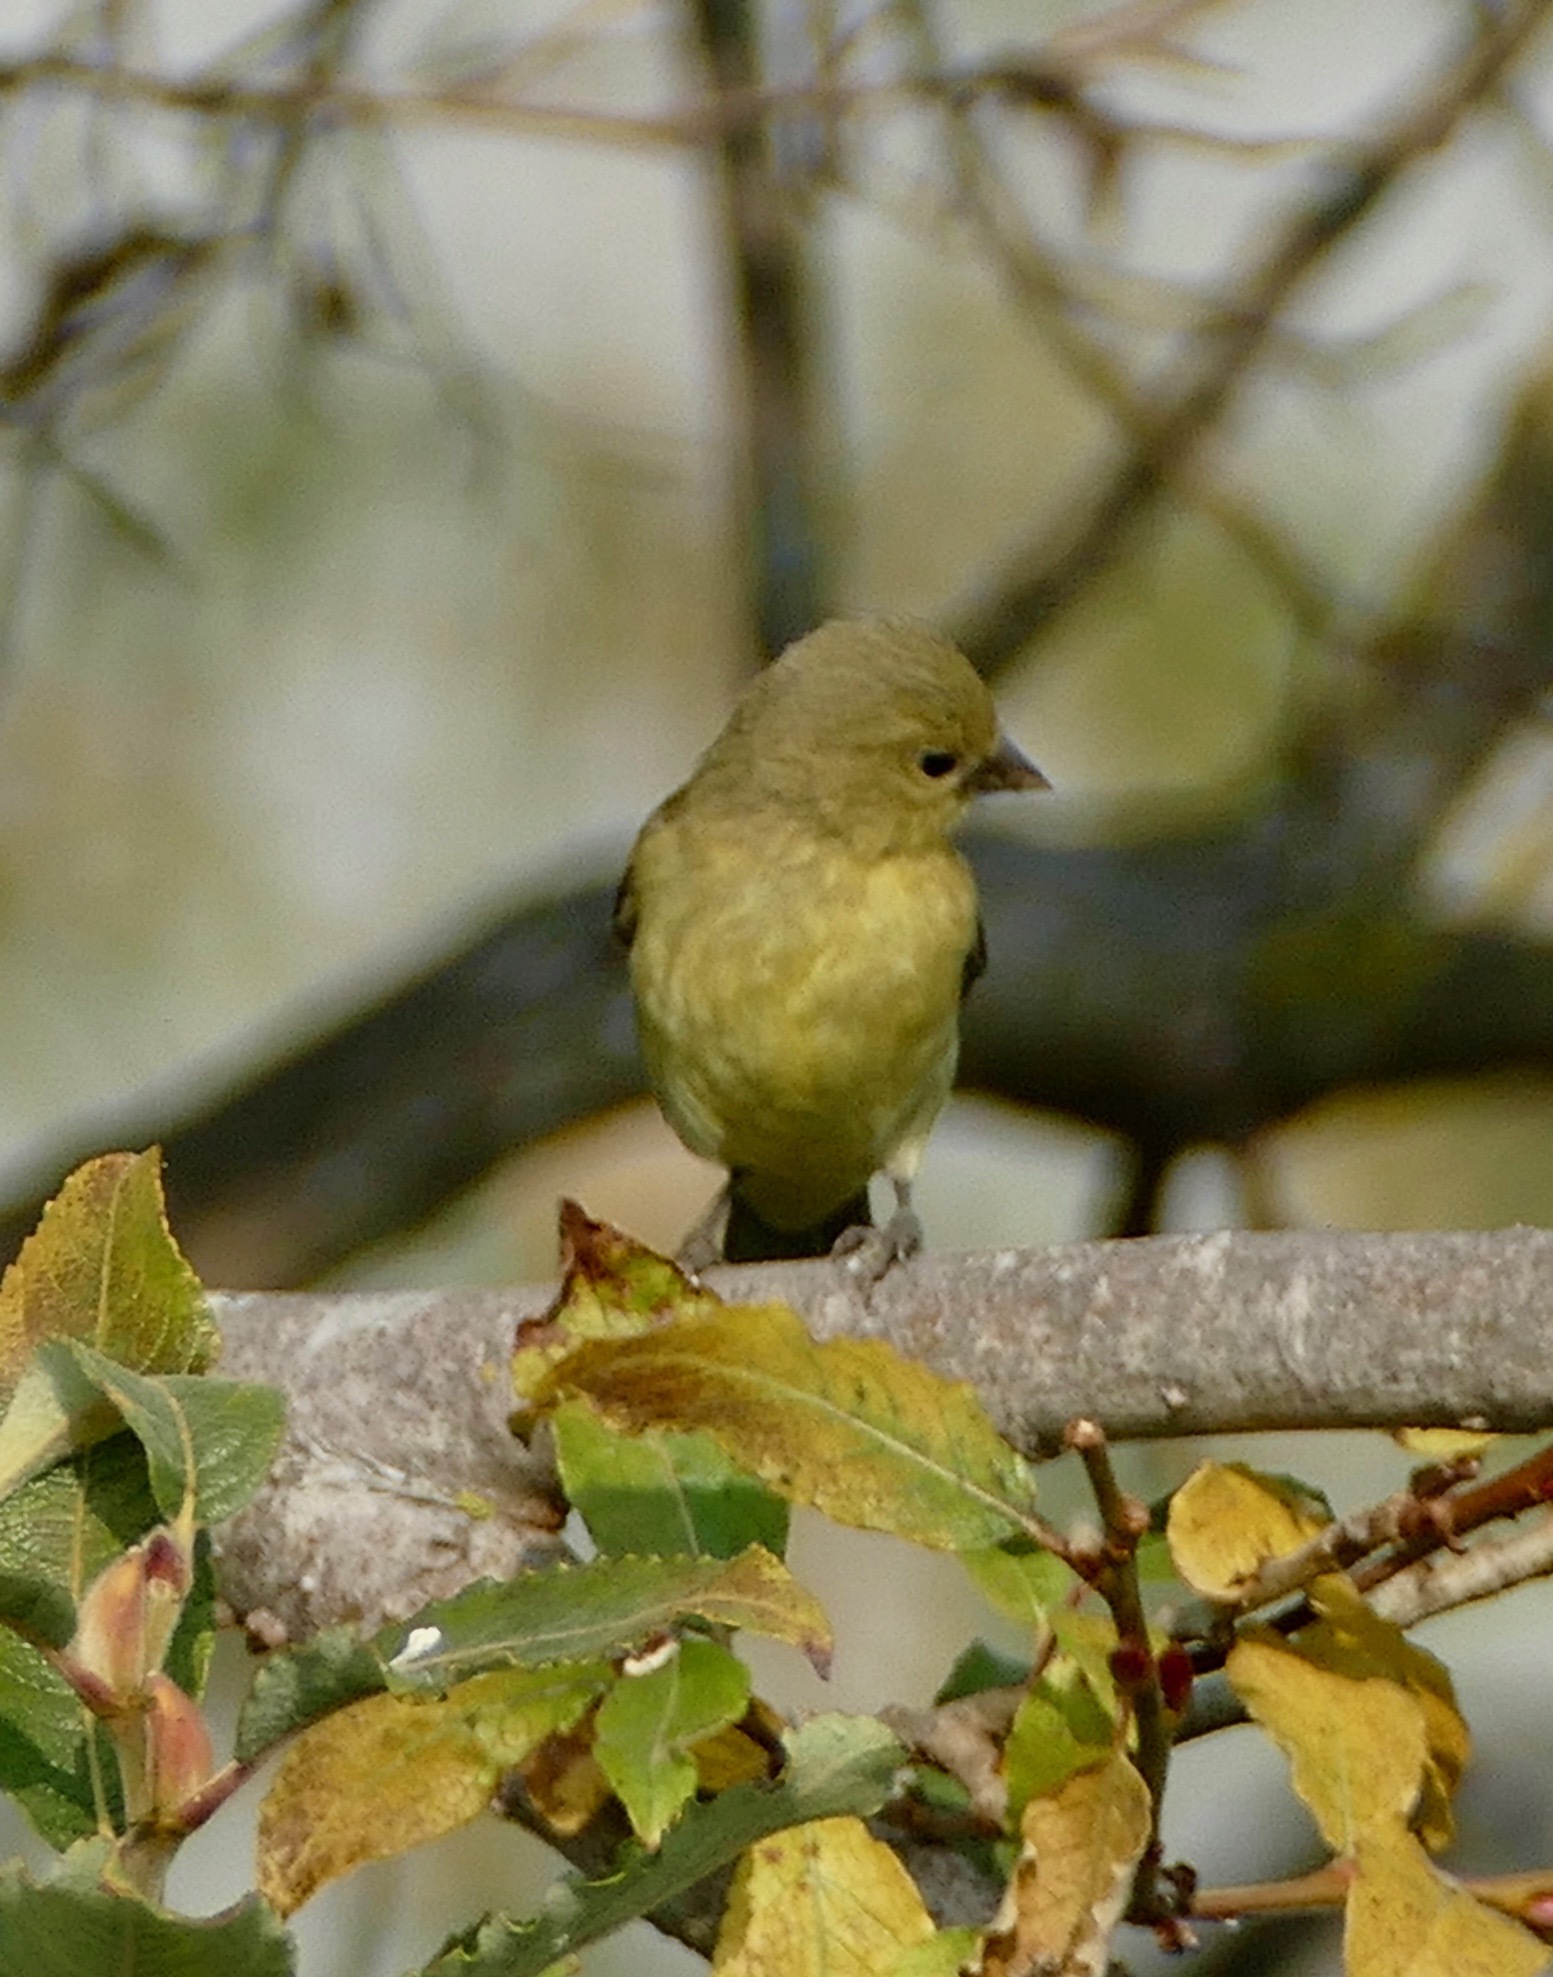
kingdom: Animalia
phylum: Chordata
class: Aves
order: Passeriformes
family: Fringillidae
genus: Spinus
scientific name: Spinus psaltria
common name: Lesser goldfinch
